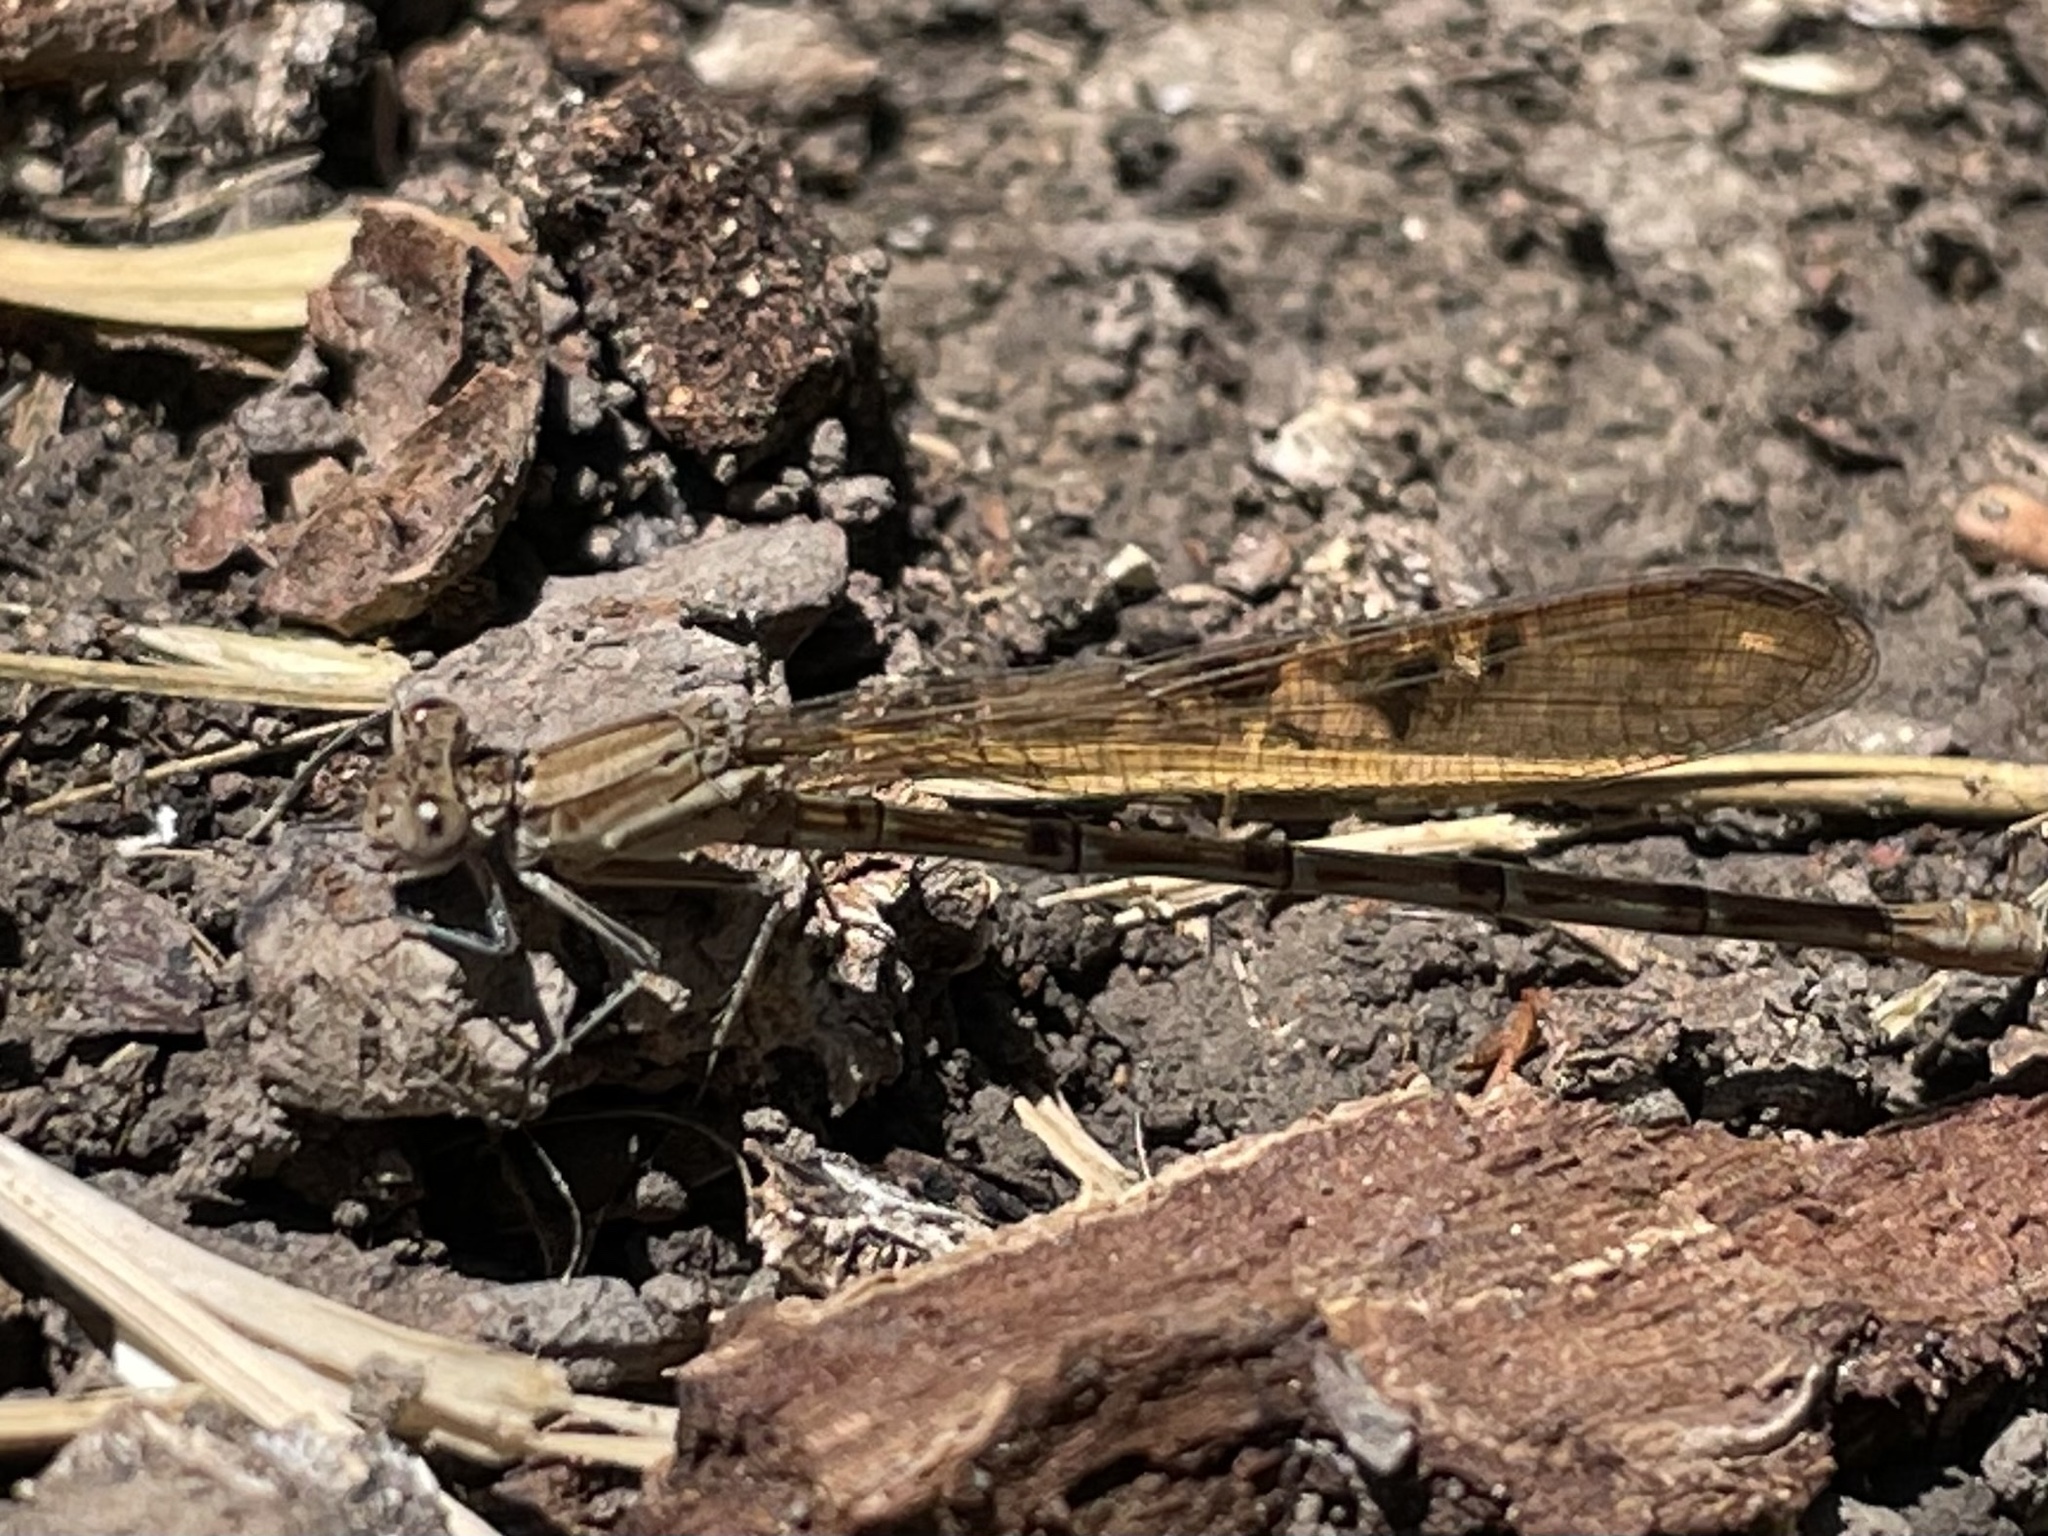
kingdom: Animalia
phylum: Arthropoda
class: Insecta
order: Odonata
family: Coenagrionidae
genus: Argia
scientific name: Argia sedula
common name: Blue-ringed dancer
